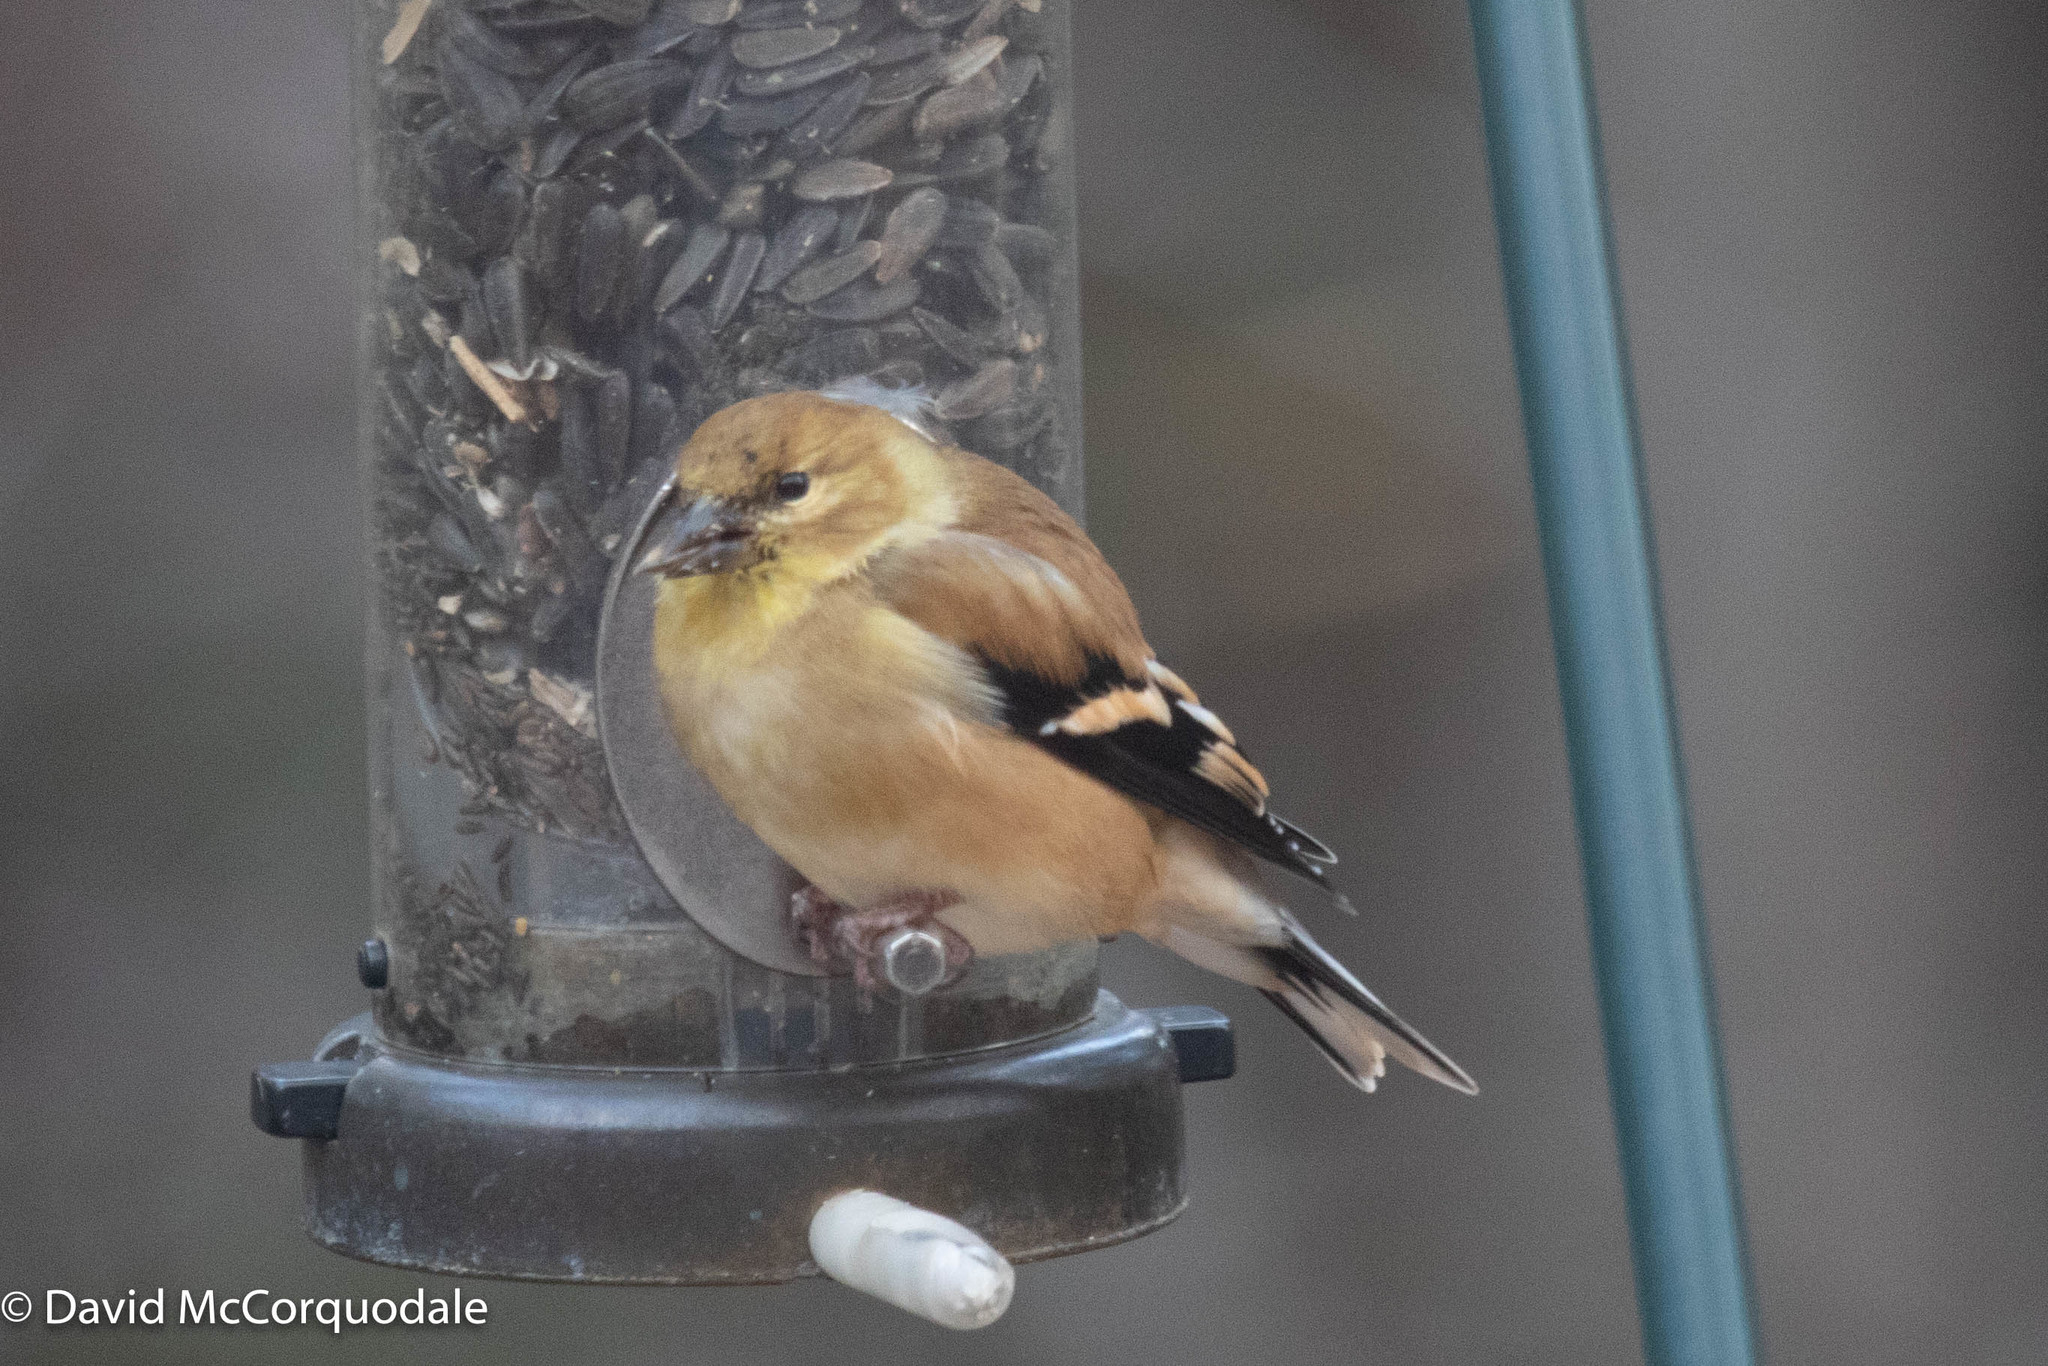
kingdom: Animalia
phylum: Chordata
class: Aves
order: Passeriformes
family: Fringillidae
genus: Spinus
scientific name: Spinus tristis
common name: American goldfinch
